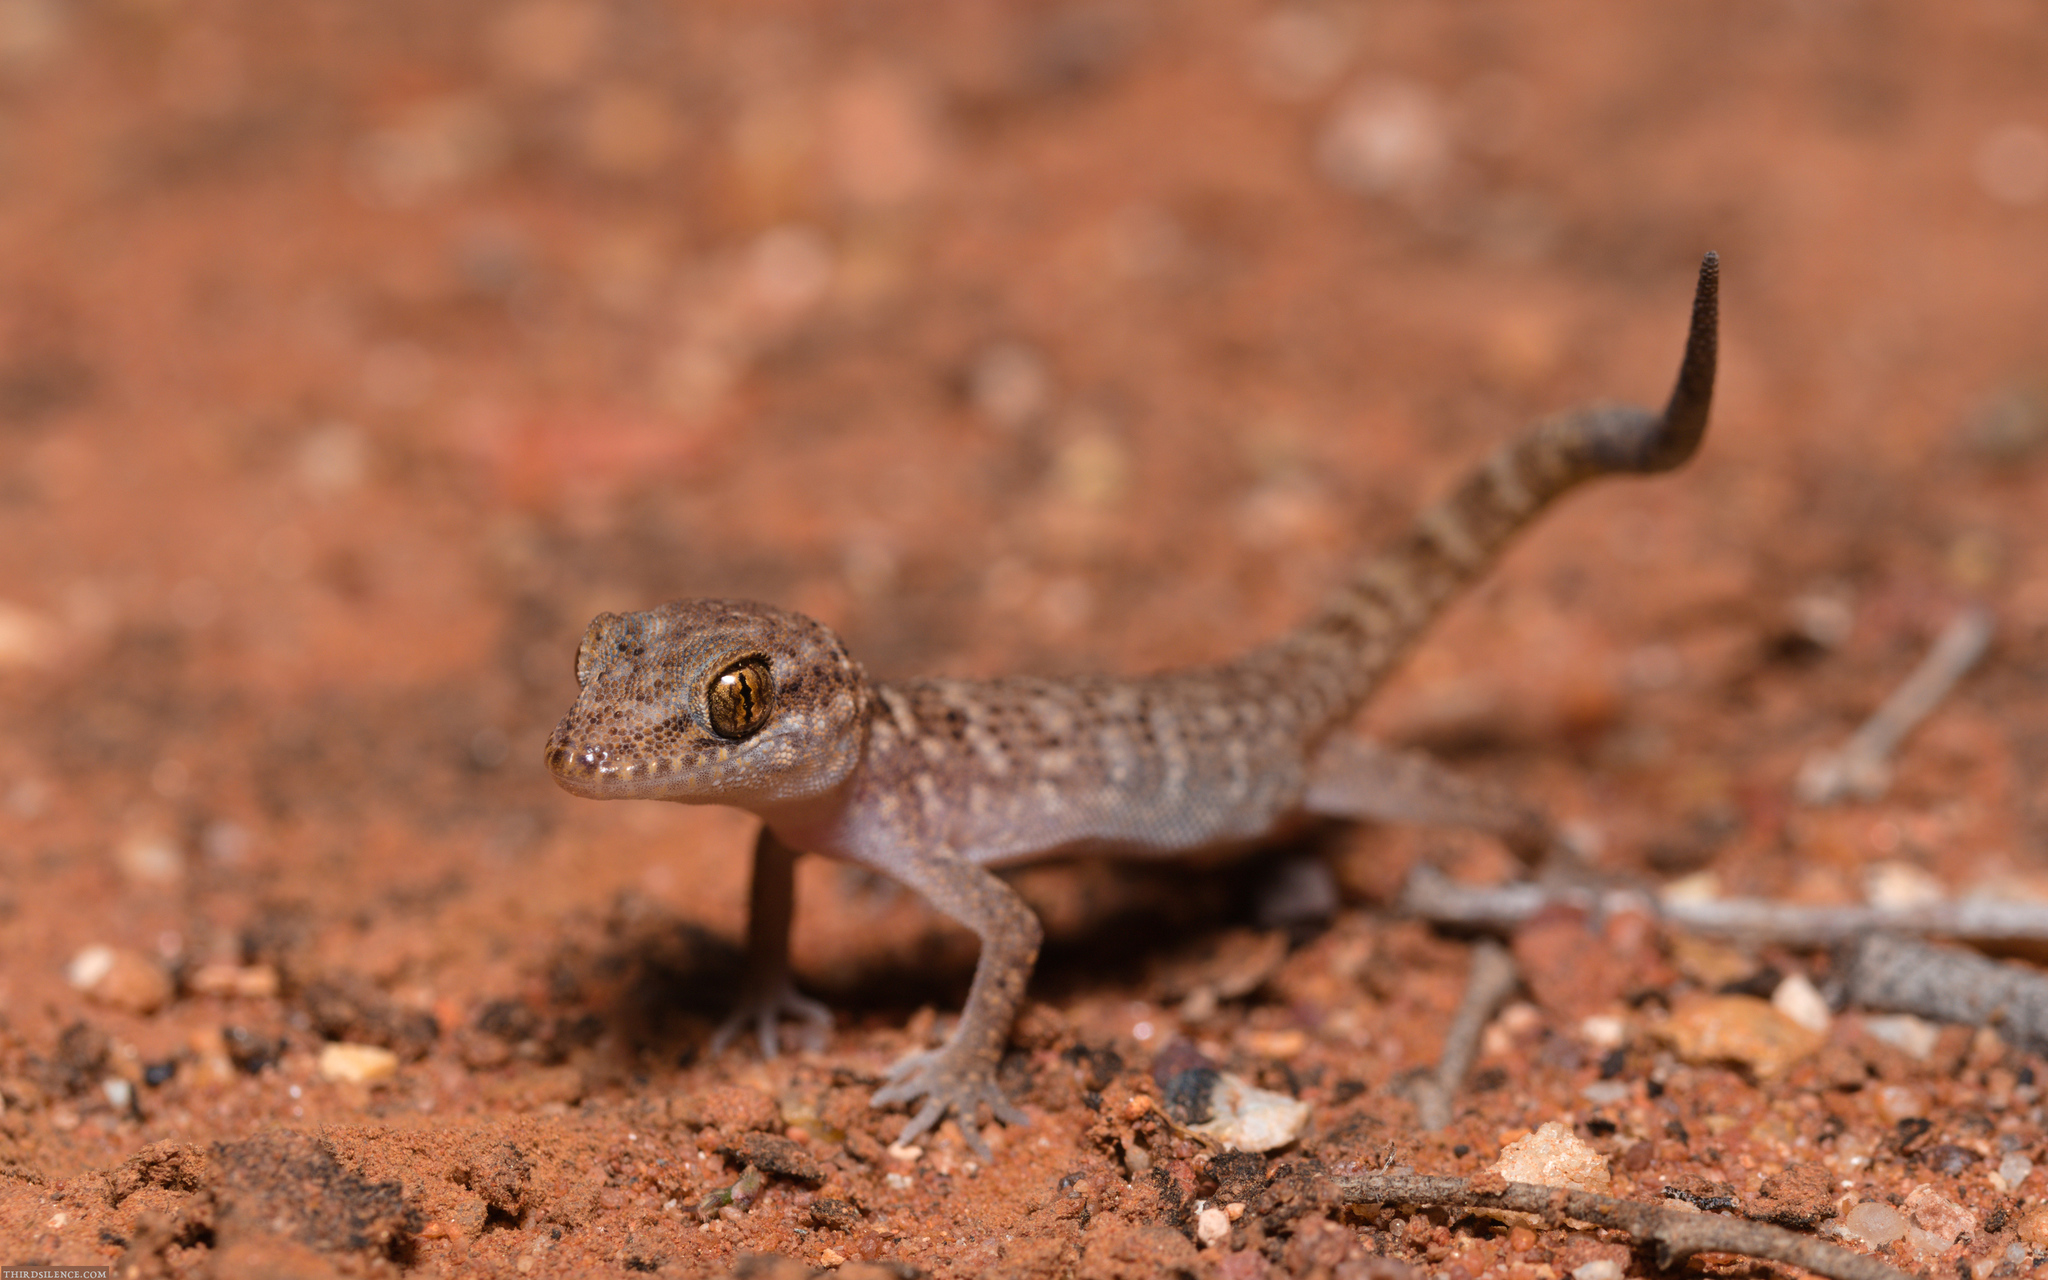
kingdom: Animalia
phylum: Chordata
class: Squamata
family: Gekkonidae
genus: Heteronotia
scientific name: Heteronotia binoei
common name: Bynoe's gecko
